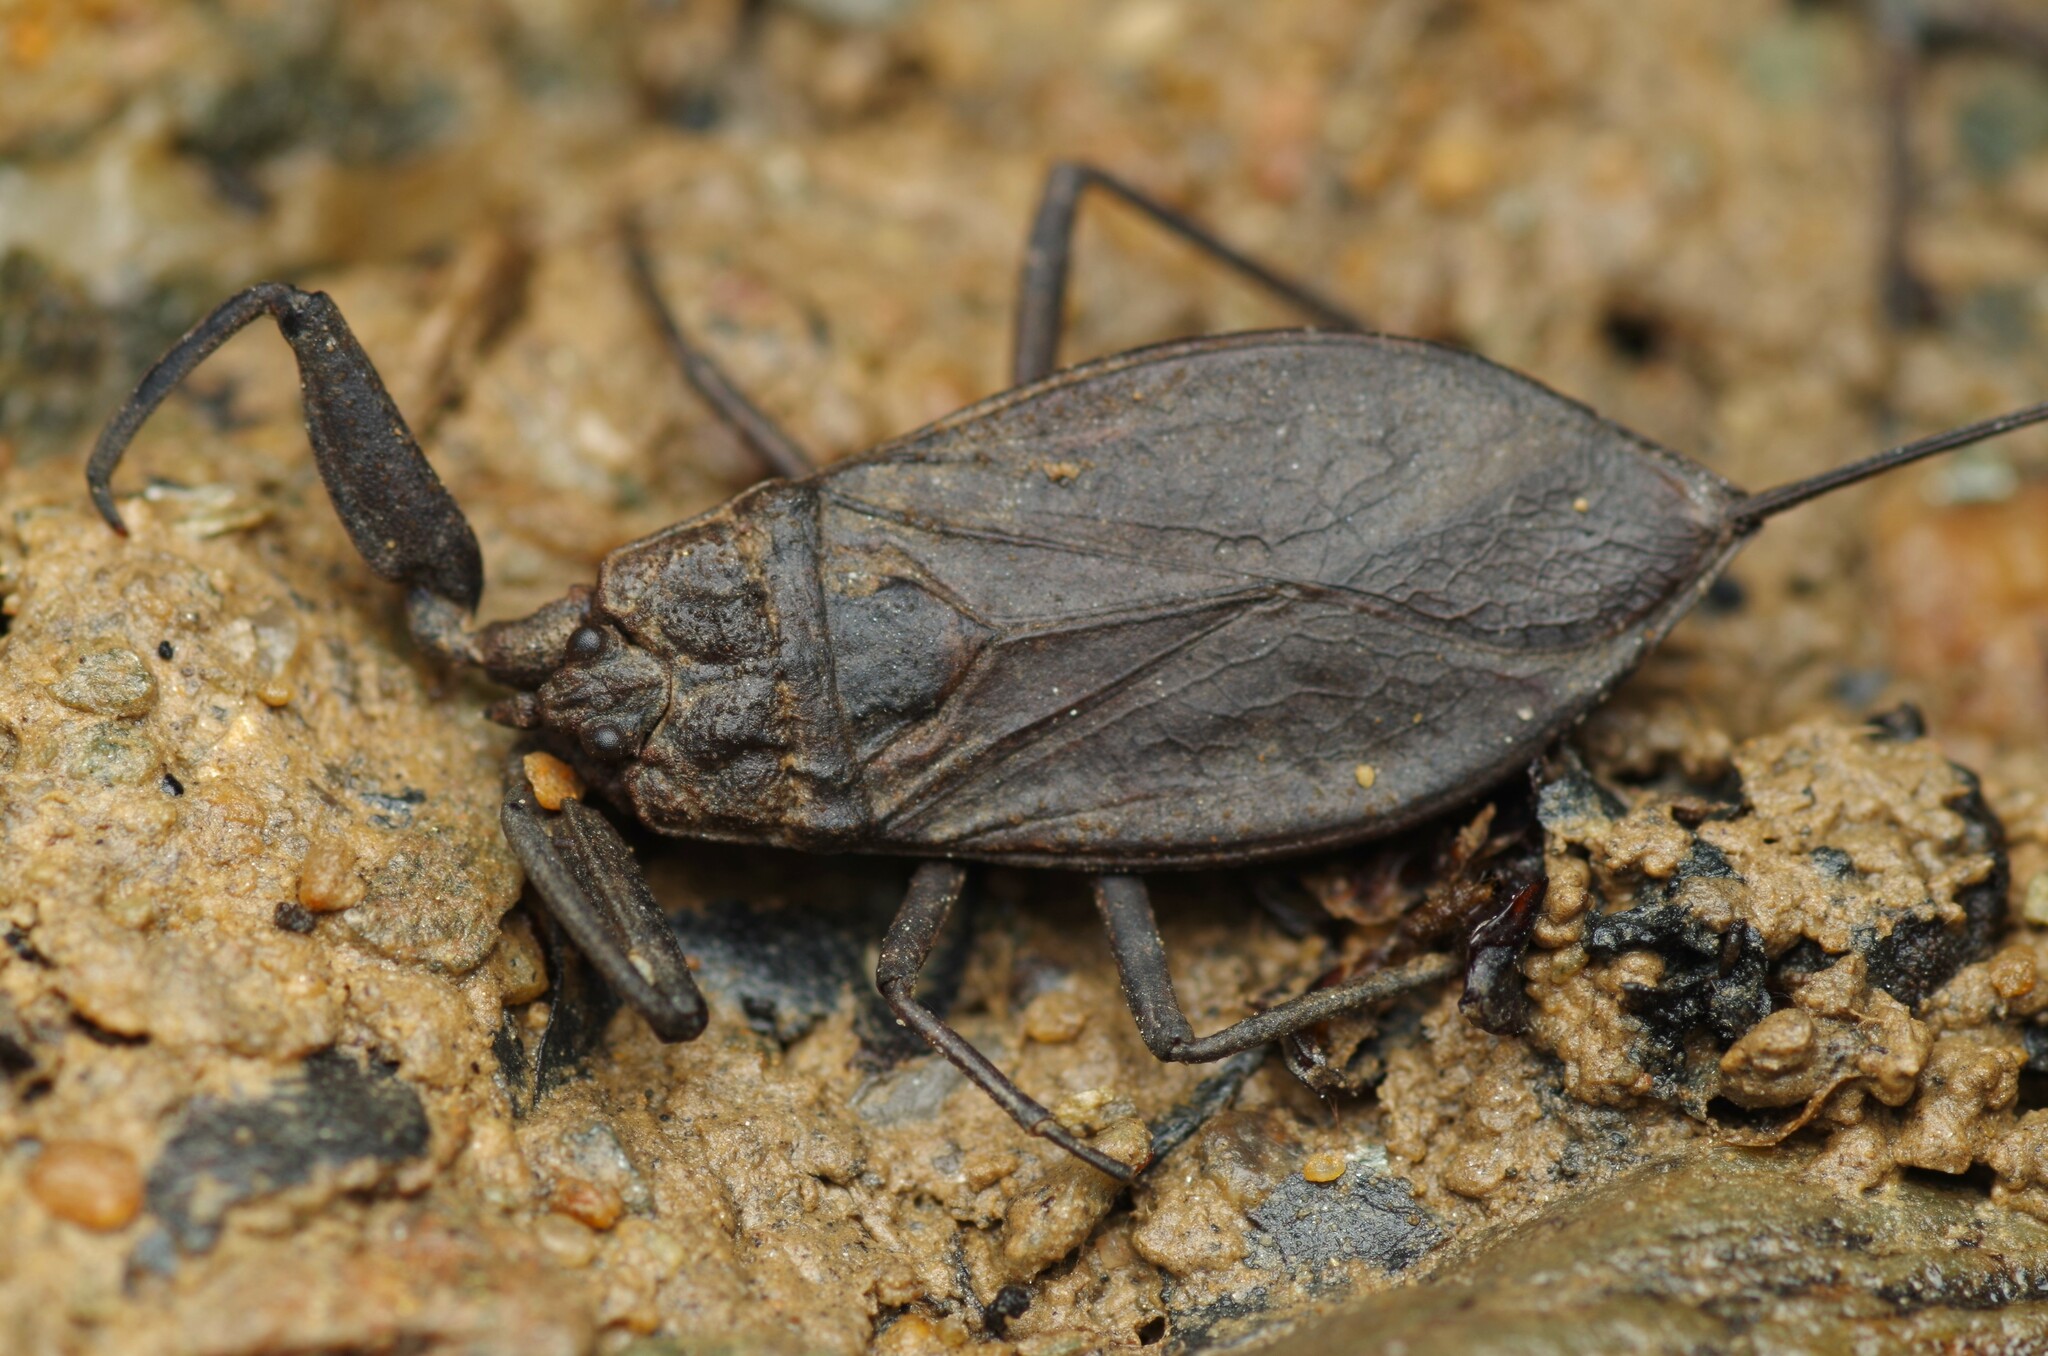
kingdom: Animalia
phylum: Arthropoda
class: Insecta
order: Hemiptera
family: Nepidae
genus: Nepa
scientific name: Nepa cinerea
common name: Water scorpion
